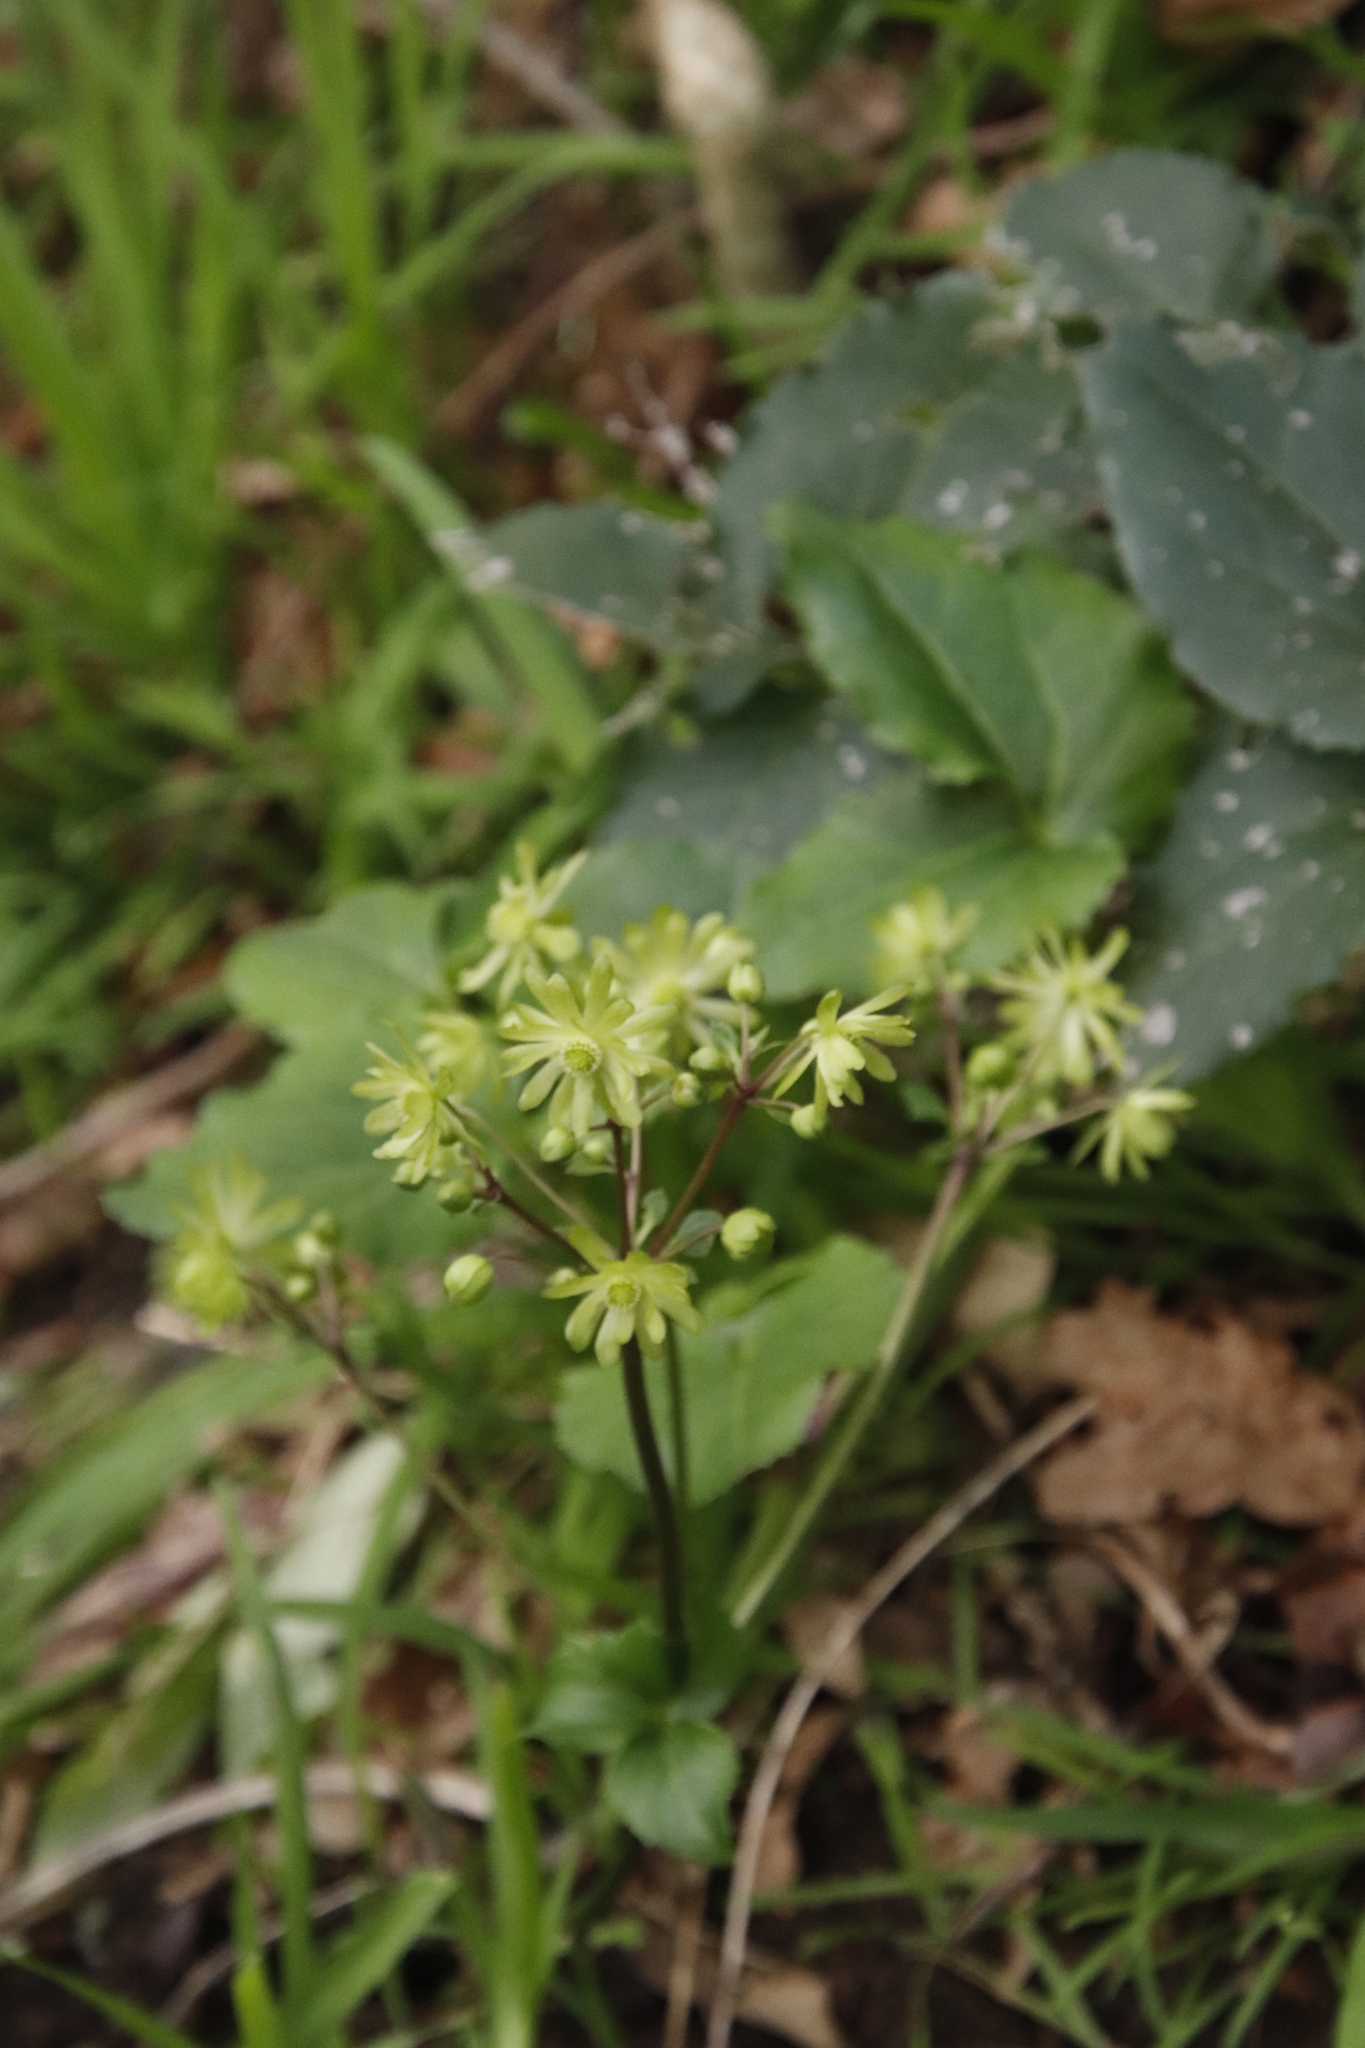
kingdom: Plantae
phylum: Tracheophyta
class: Magnoliopsida
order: Ranunculales
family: Ranunculaceae
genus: Knowltonia
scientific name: Knowltonia vesicatoria
